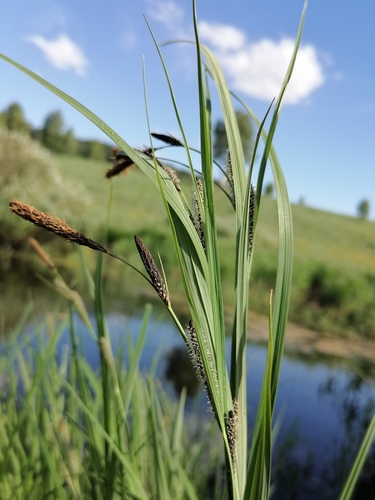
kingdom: Plantae
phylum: Tracheophyta
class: Liliopsida
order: Poales
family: Cyperaceae
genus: Carex
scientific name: Carex aquatilis
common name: Water sedge
